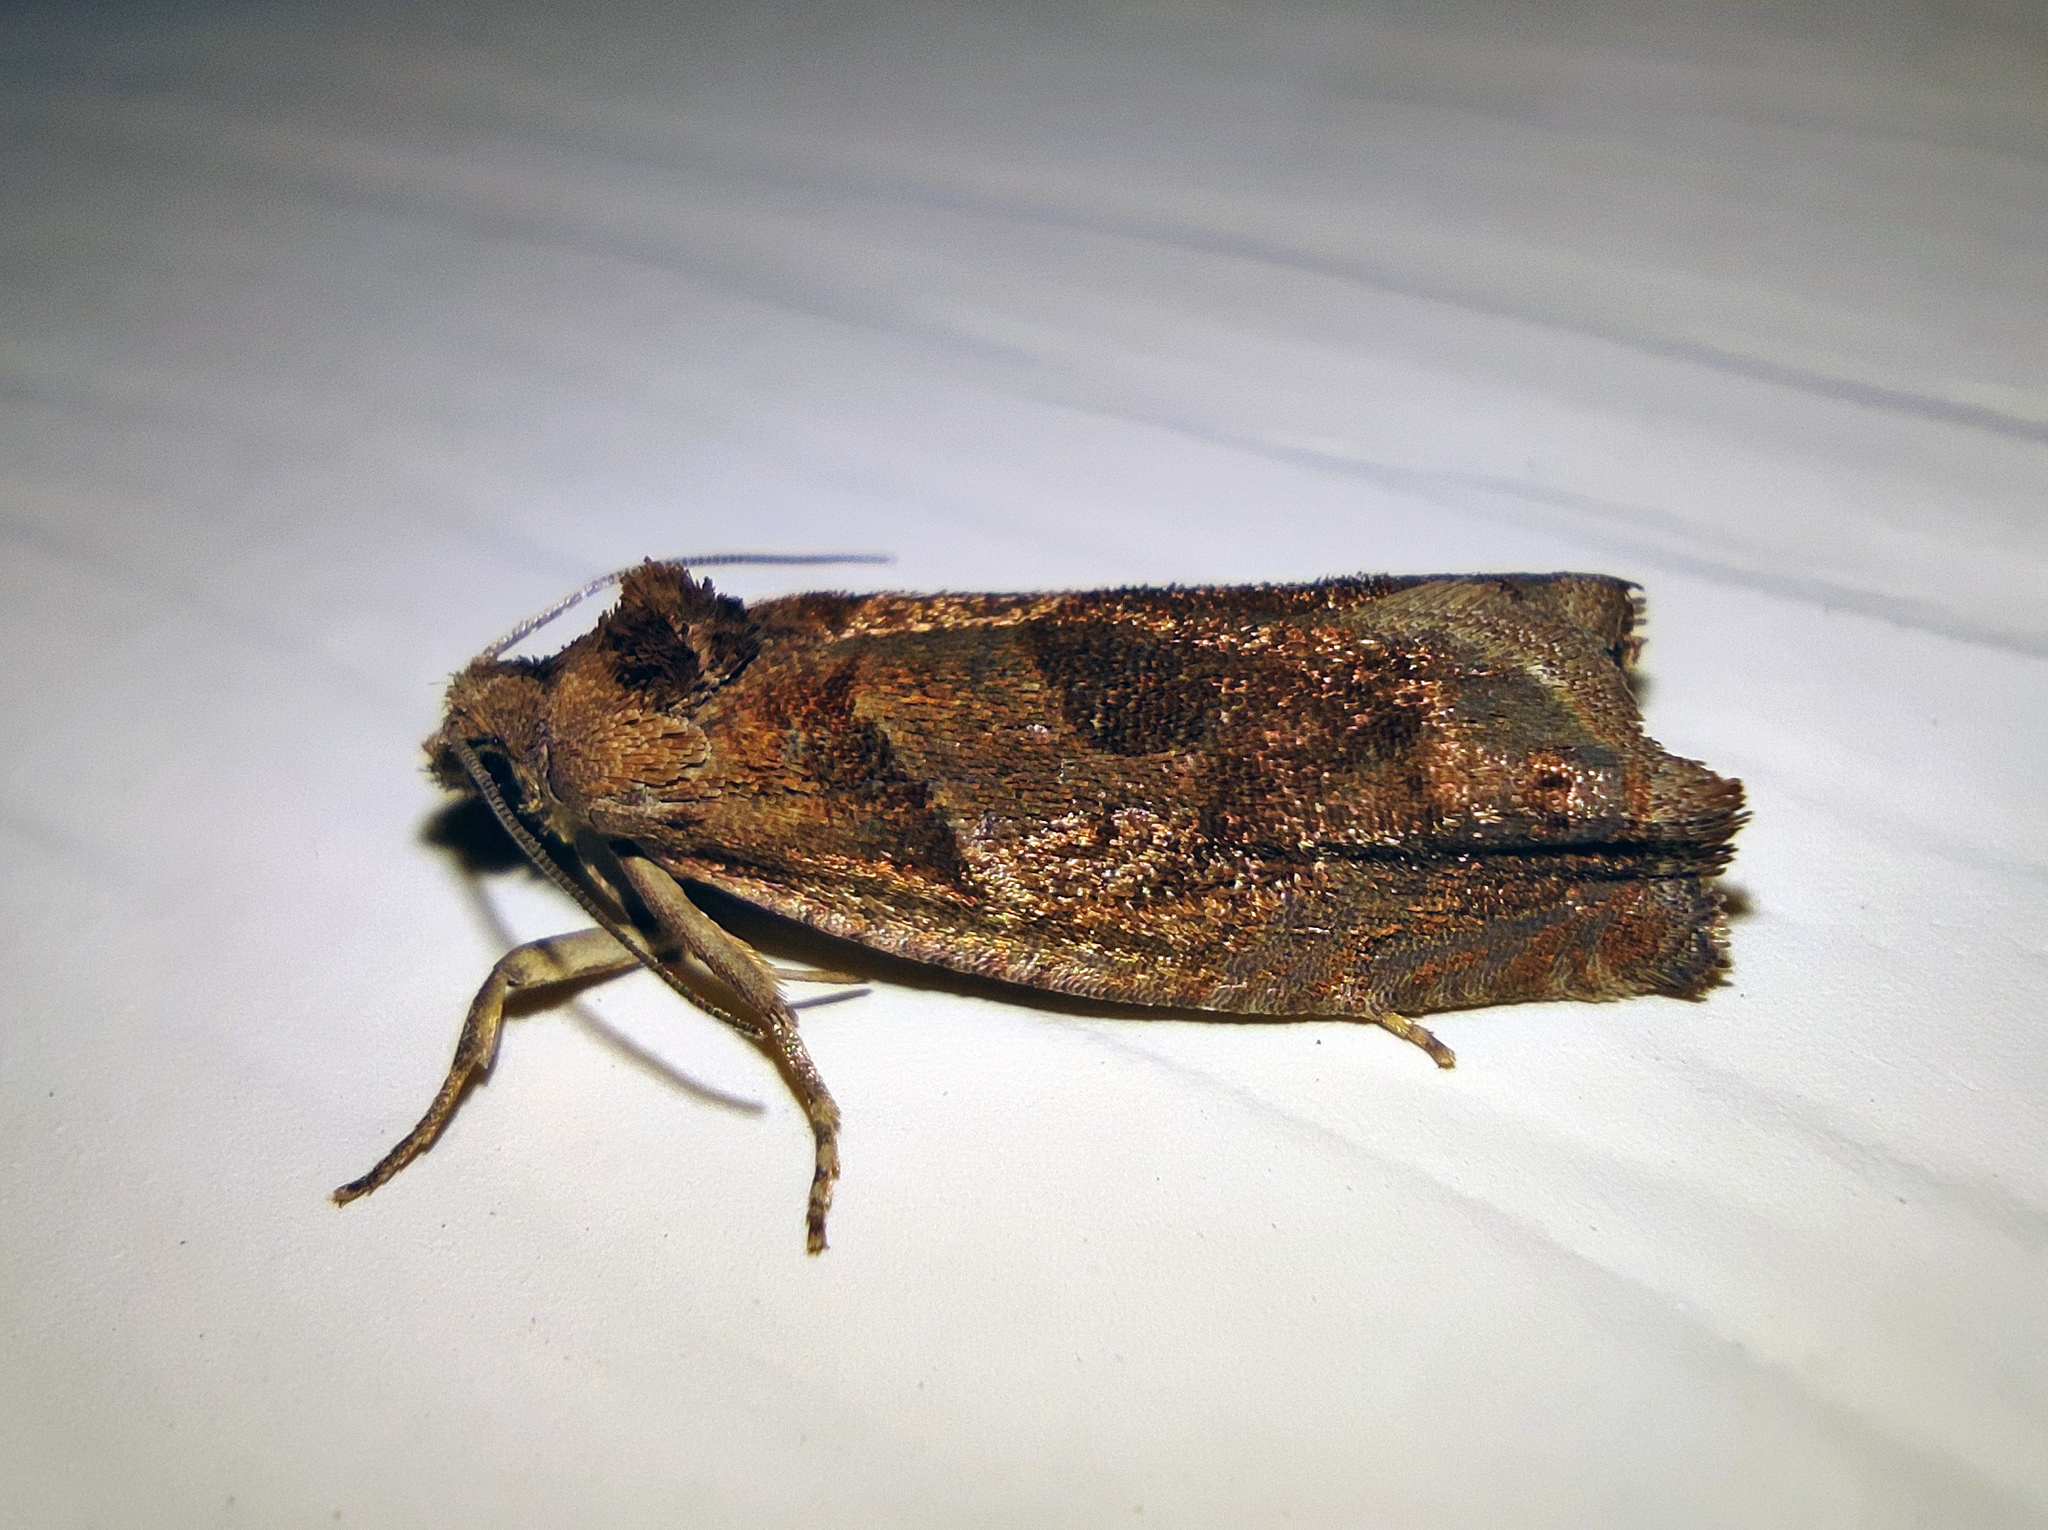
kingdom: Animalia
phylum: Arthropoda
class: Insecta
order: Lepidoptera
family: Tortricidae
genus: Epiblema
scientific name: Epiblema foenella
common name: White-foot bell
